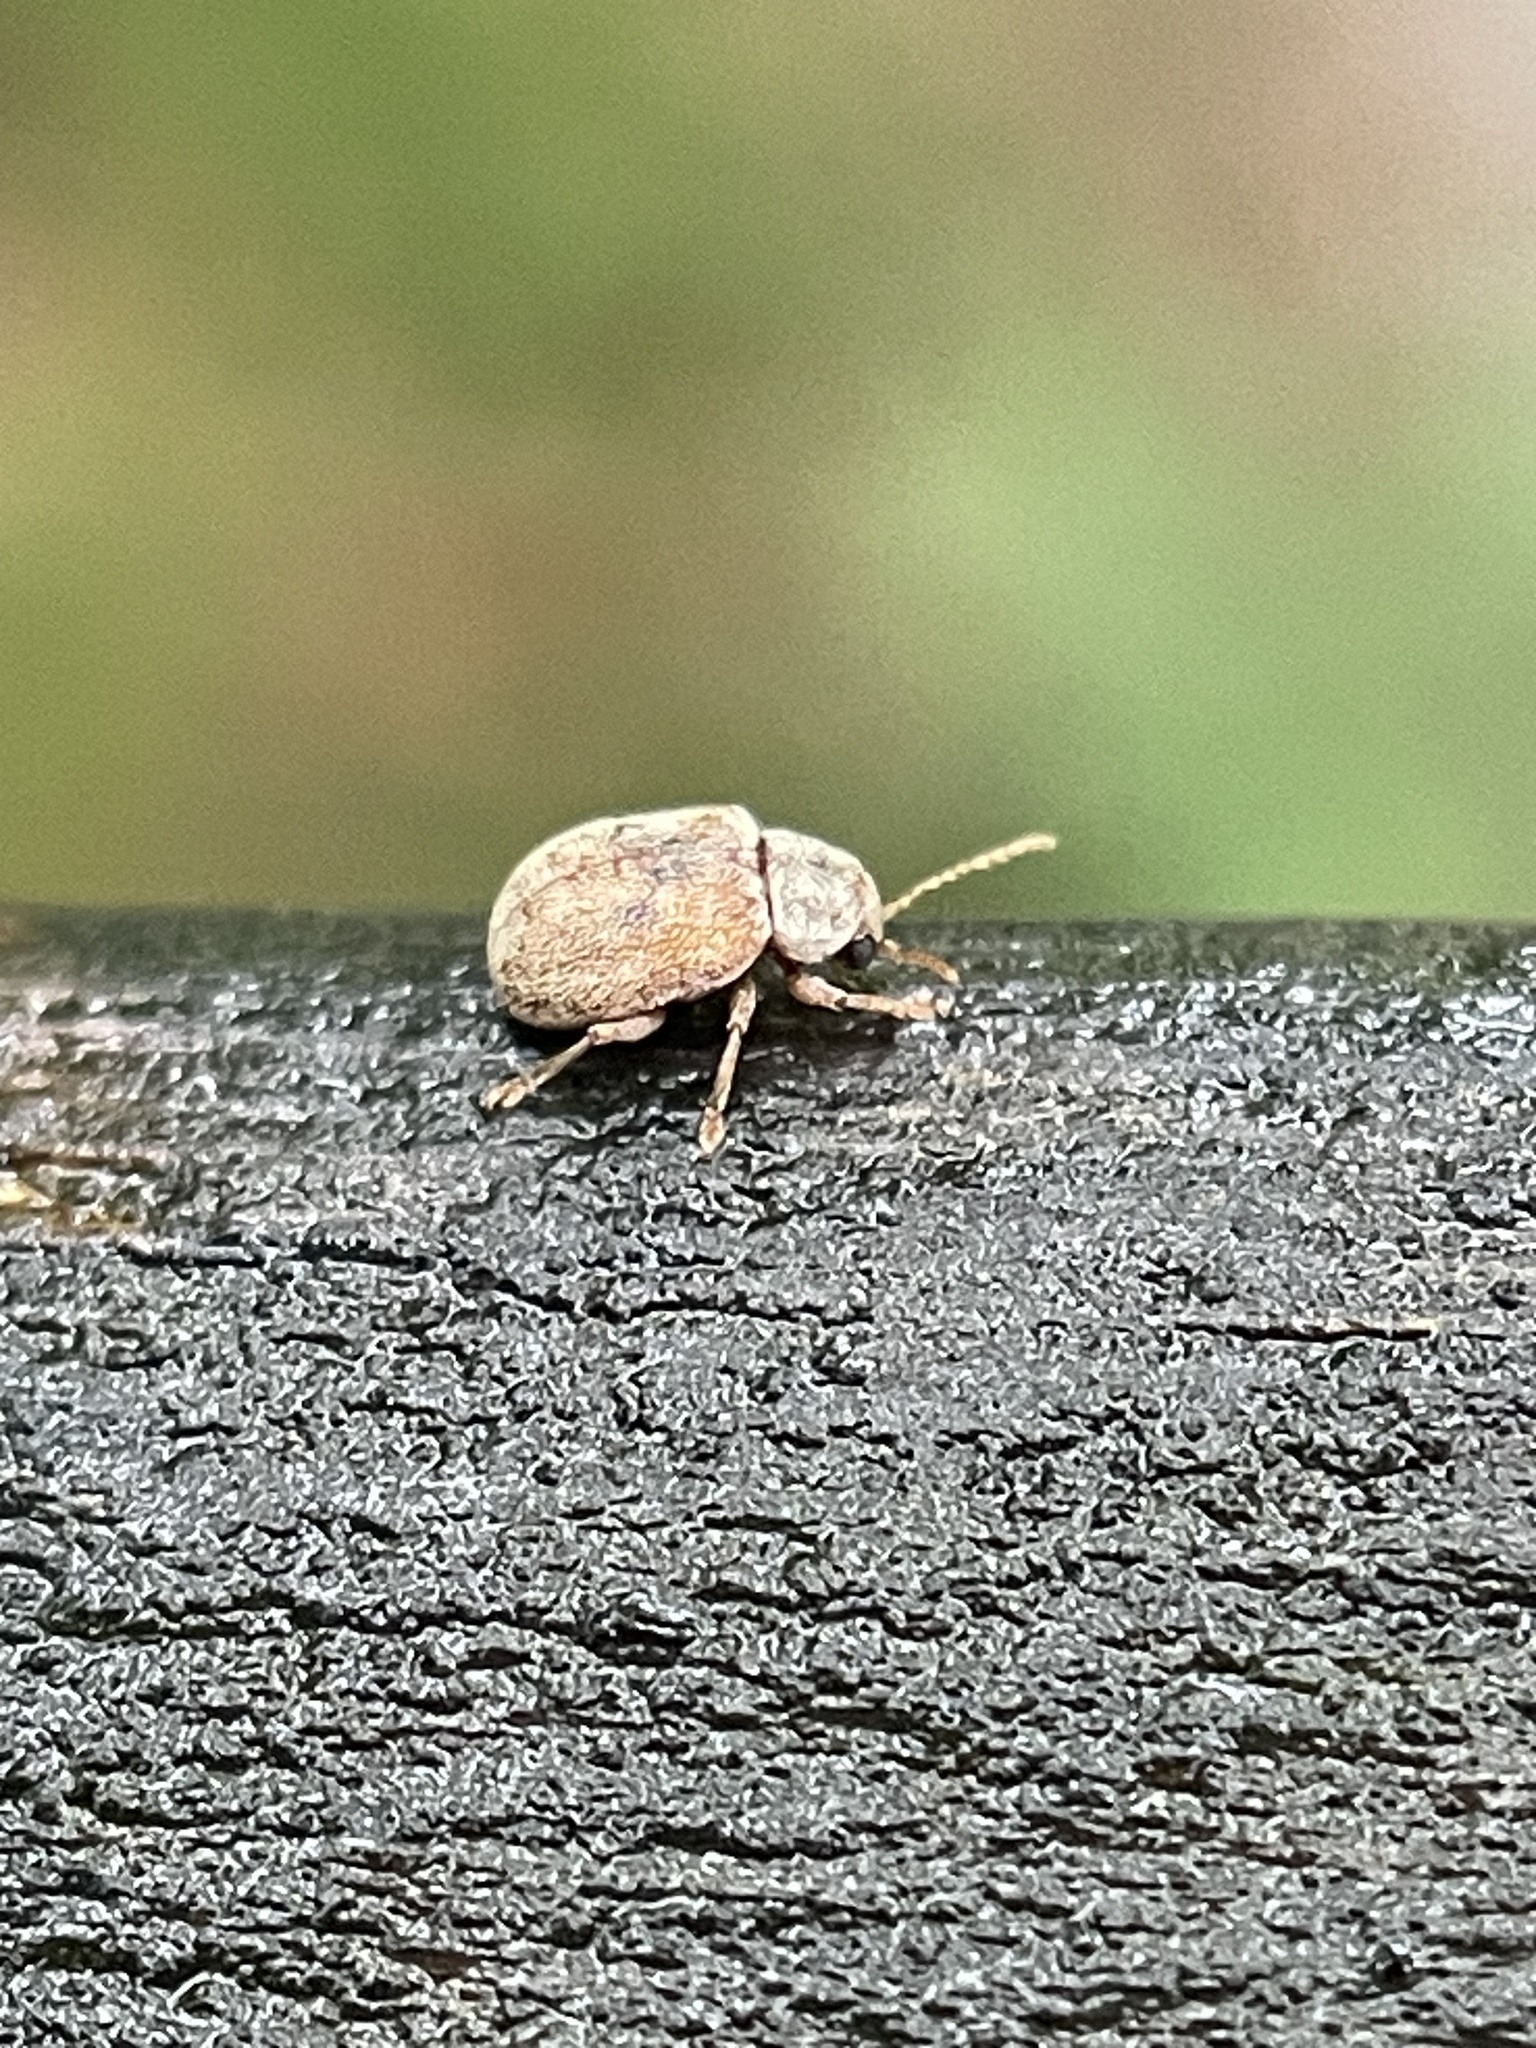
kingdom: Animalia
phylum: Arthropoda
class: Insecta
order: Coleoptera
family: Chrysomelidae
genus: Demotina
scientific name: Demotina modesta
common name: Leaf beetle
